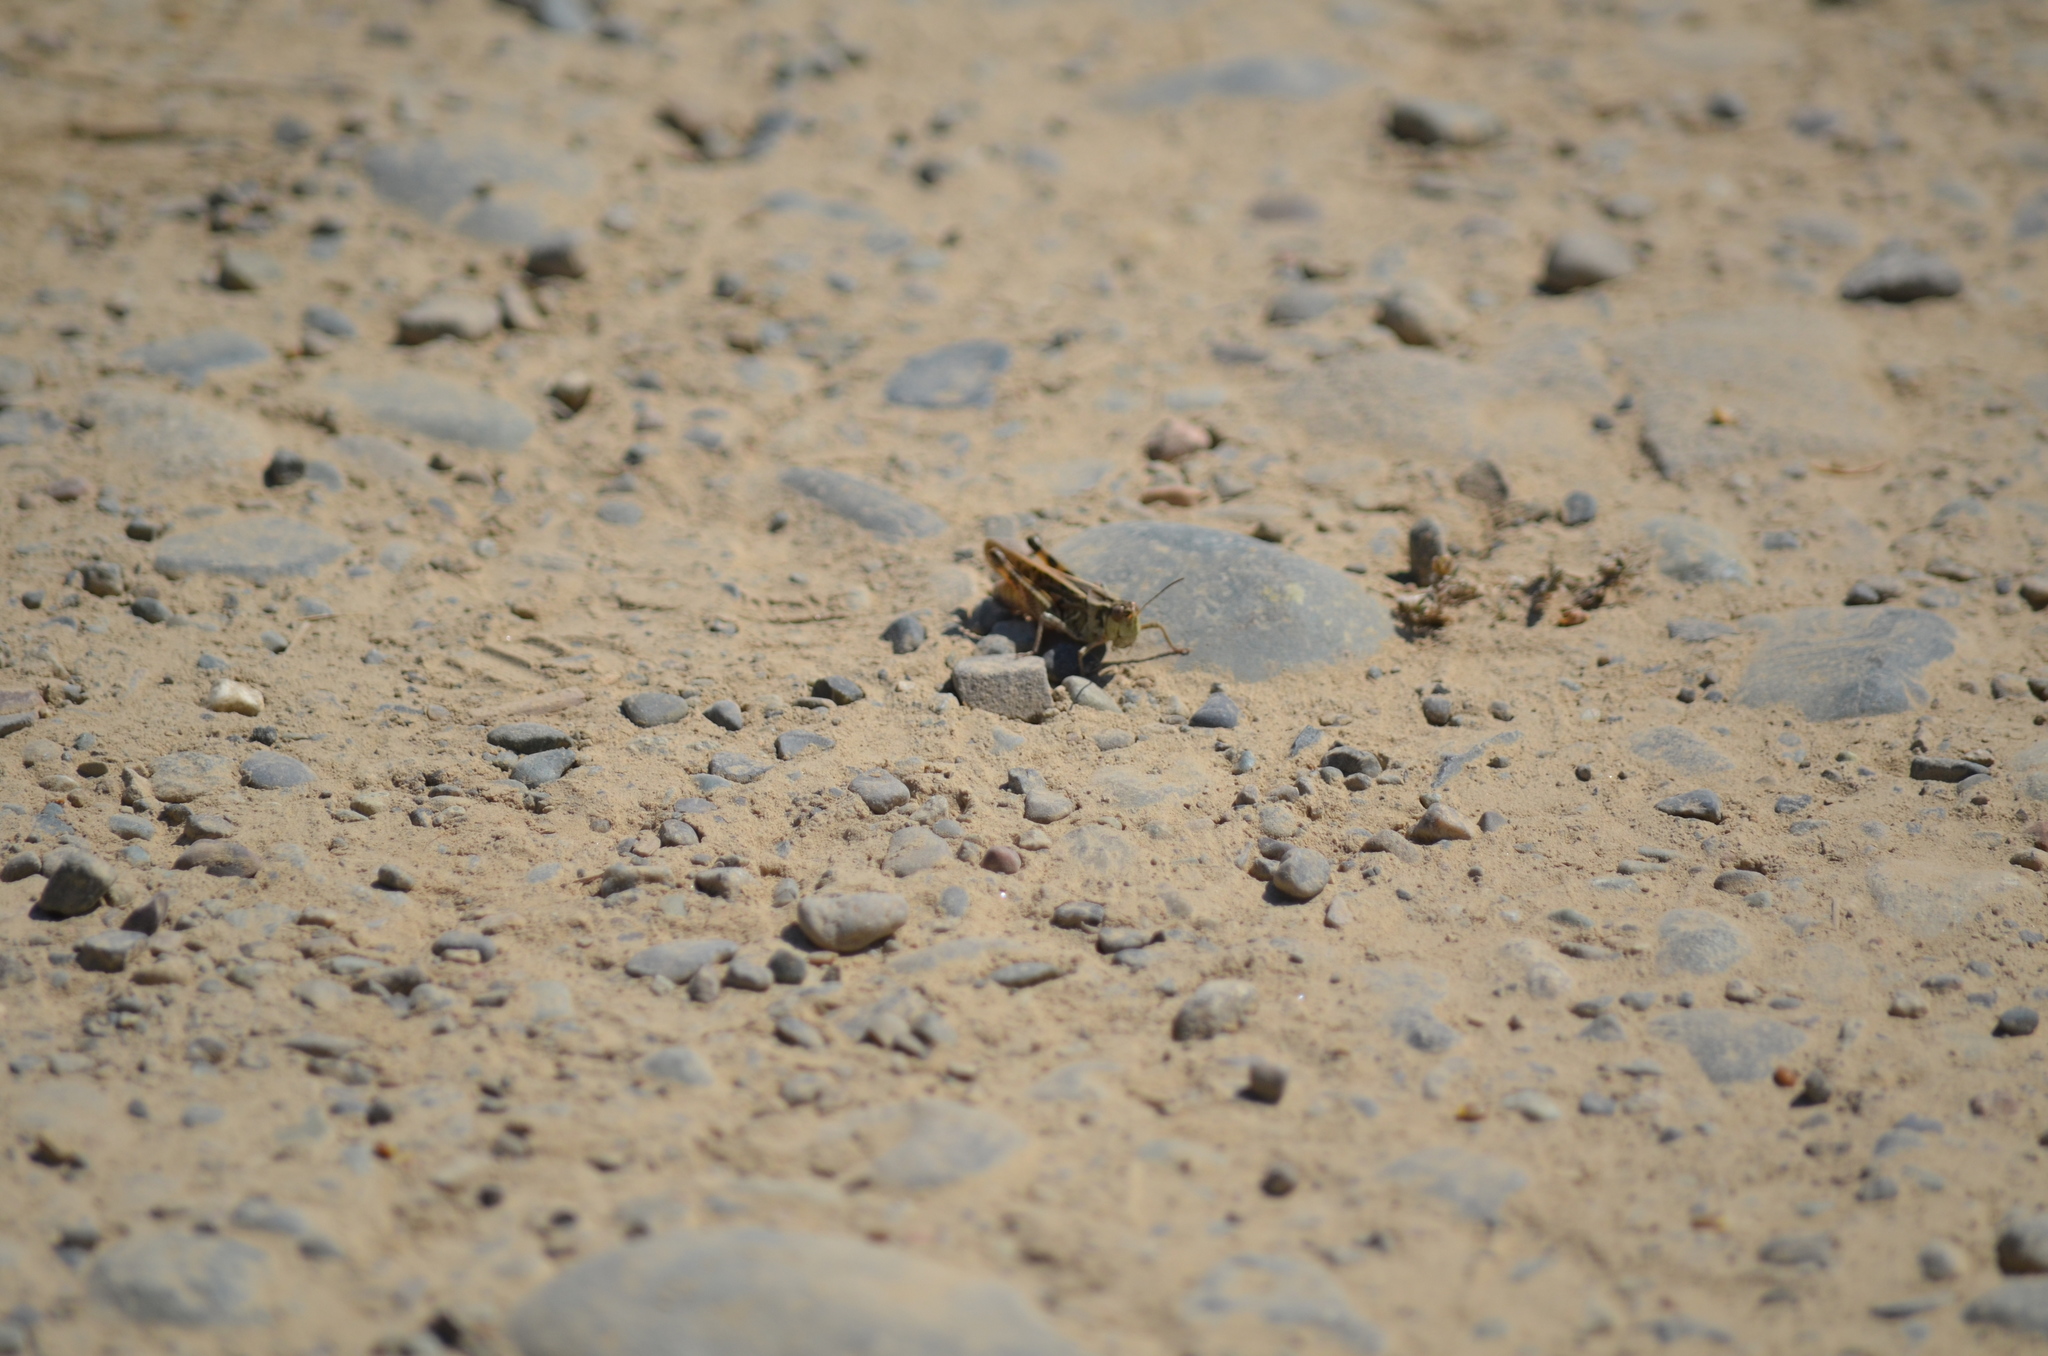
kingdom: Animalia
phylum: Arthropoda
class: Insecta
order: Orthoptera
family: Acrididae
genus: Camnula
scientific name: Camnula pellucida
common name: Clear-winged grasshopper
